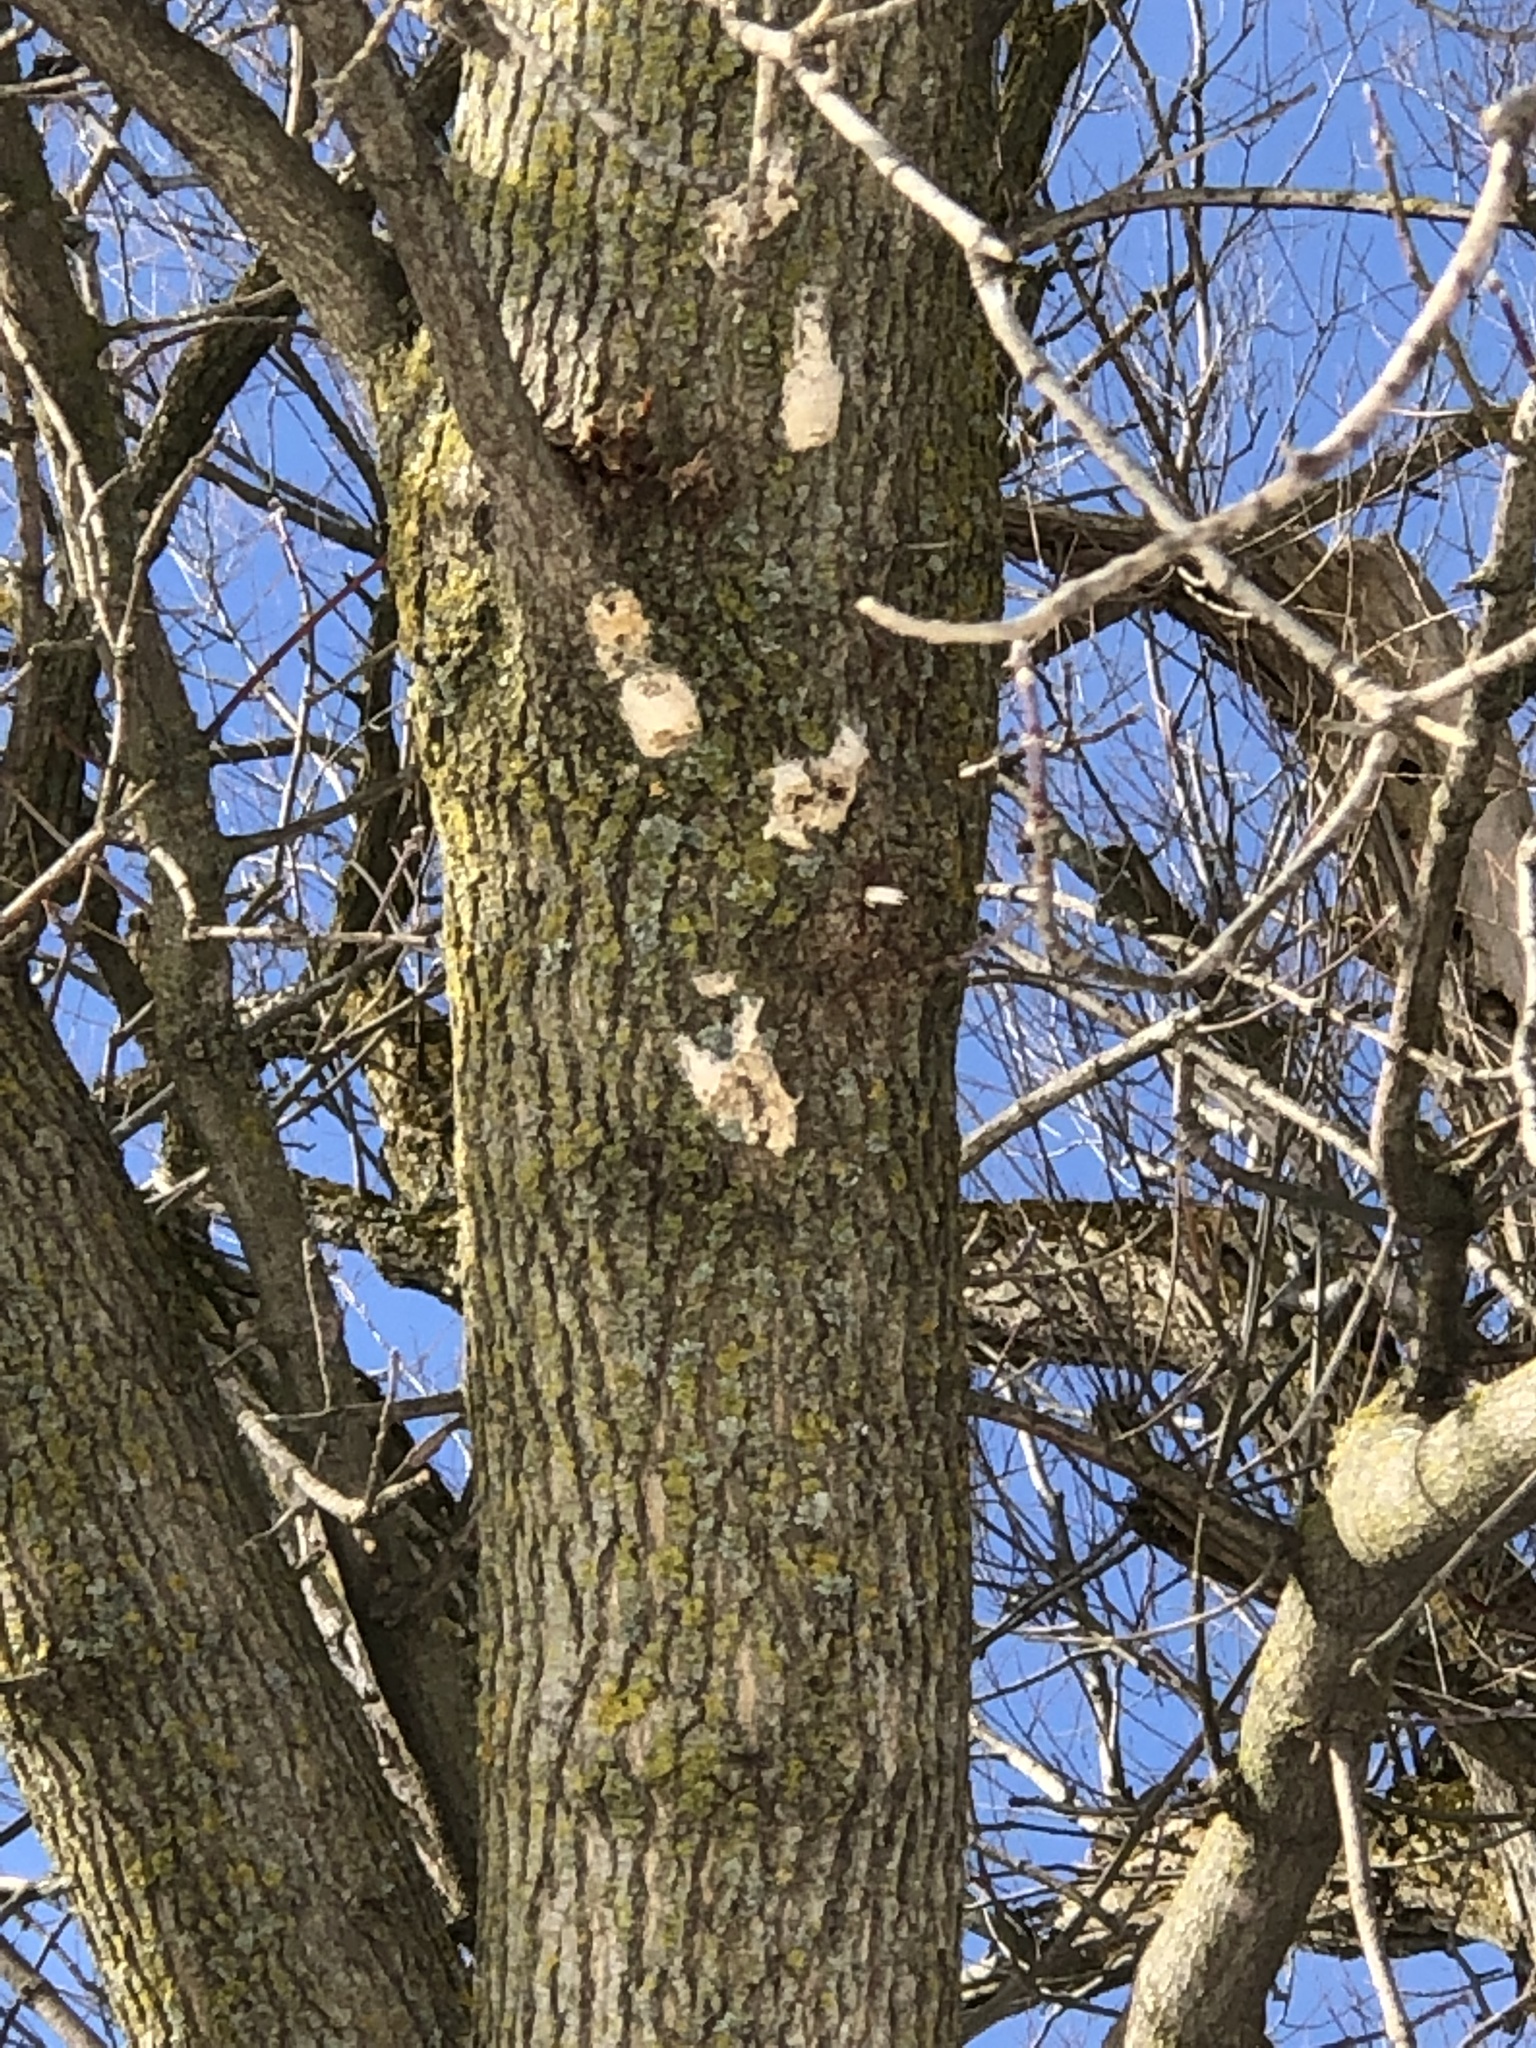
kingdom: Animalia
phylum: Arthropoda
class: Insecta
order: Lepidoptera
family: Erebidae
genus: Lymantria
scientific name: Lymantria dispar
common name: Gypsy moth
